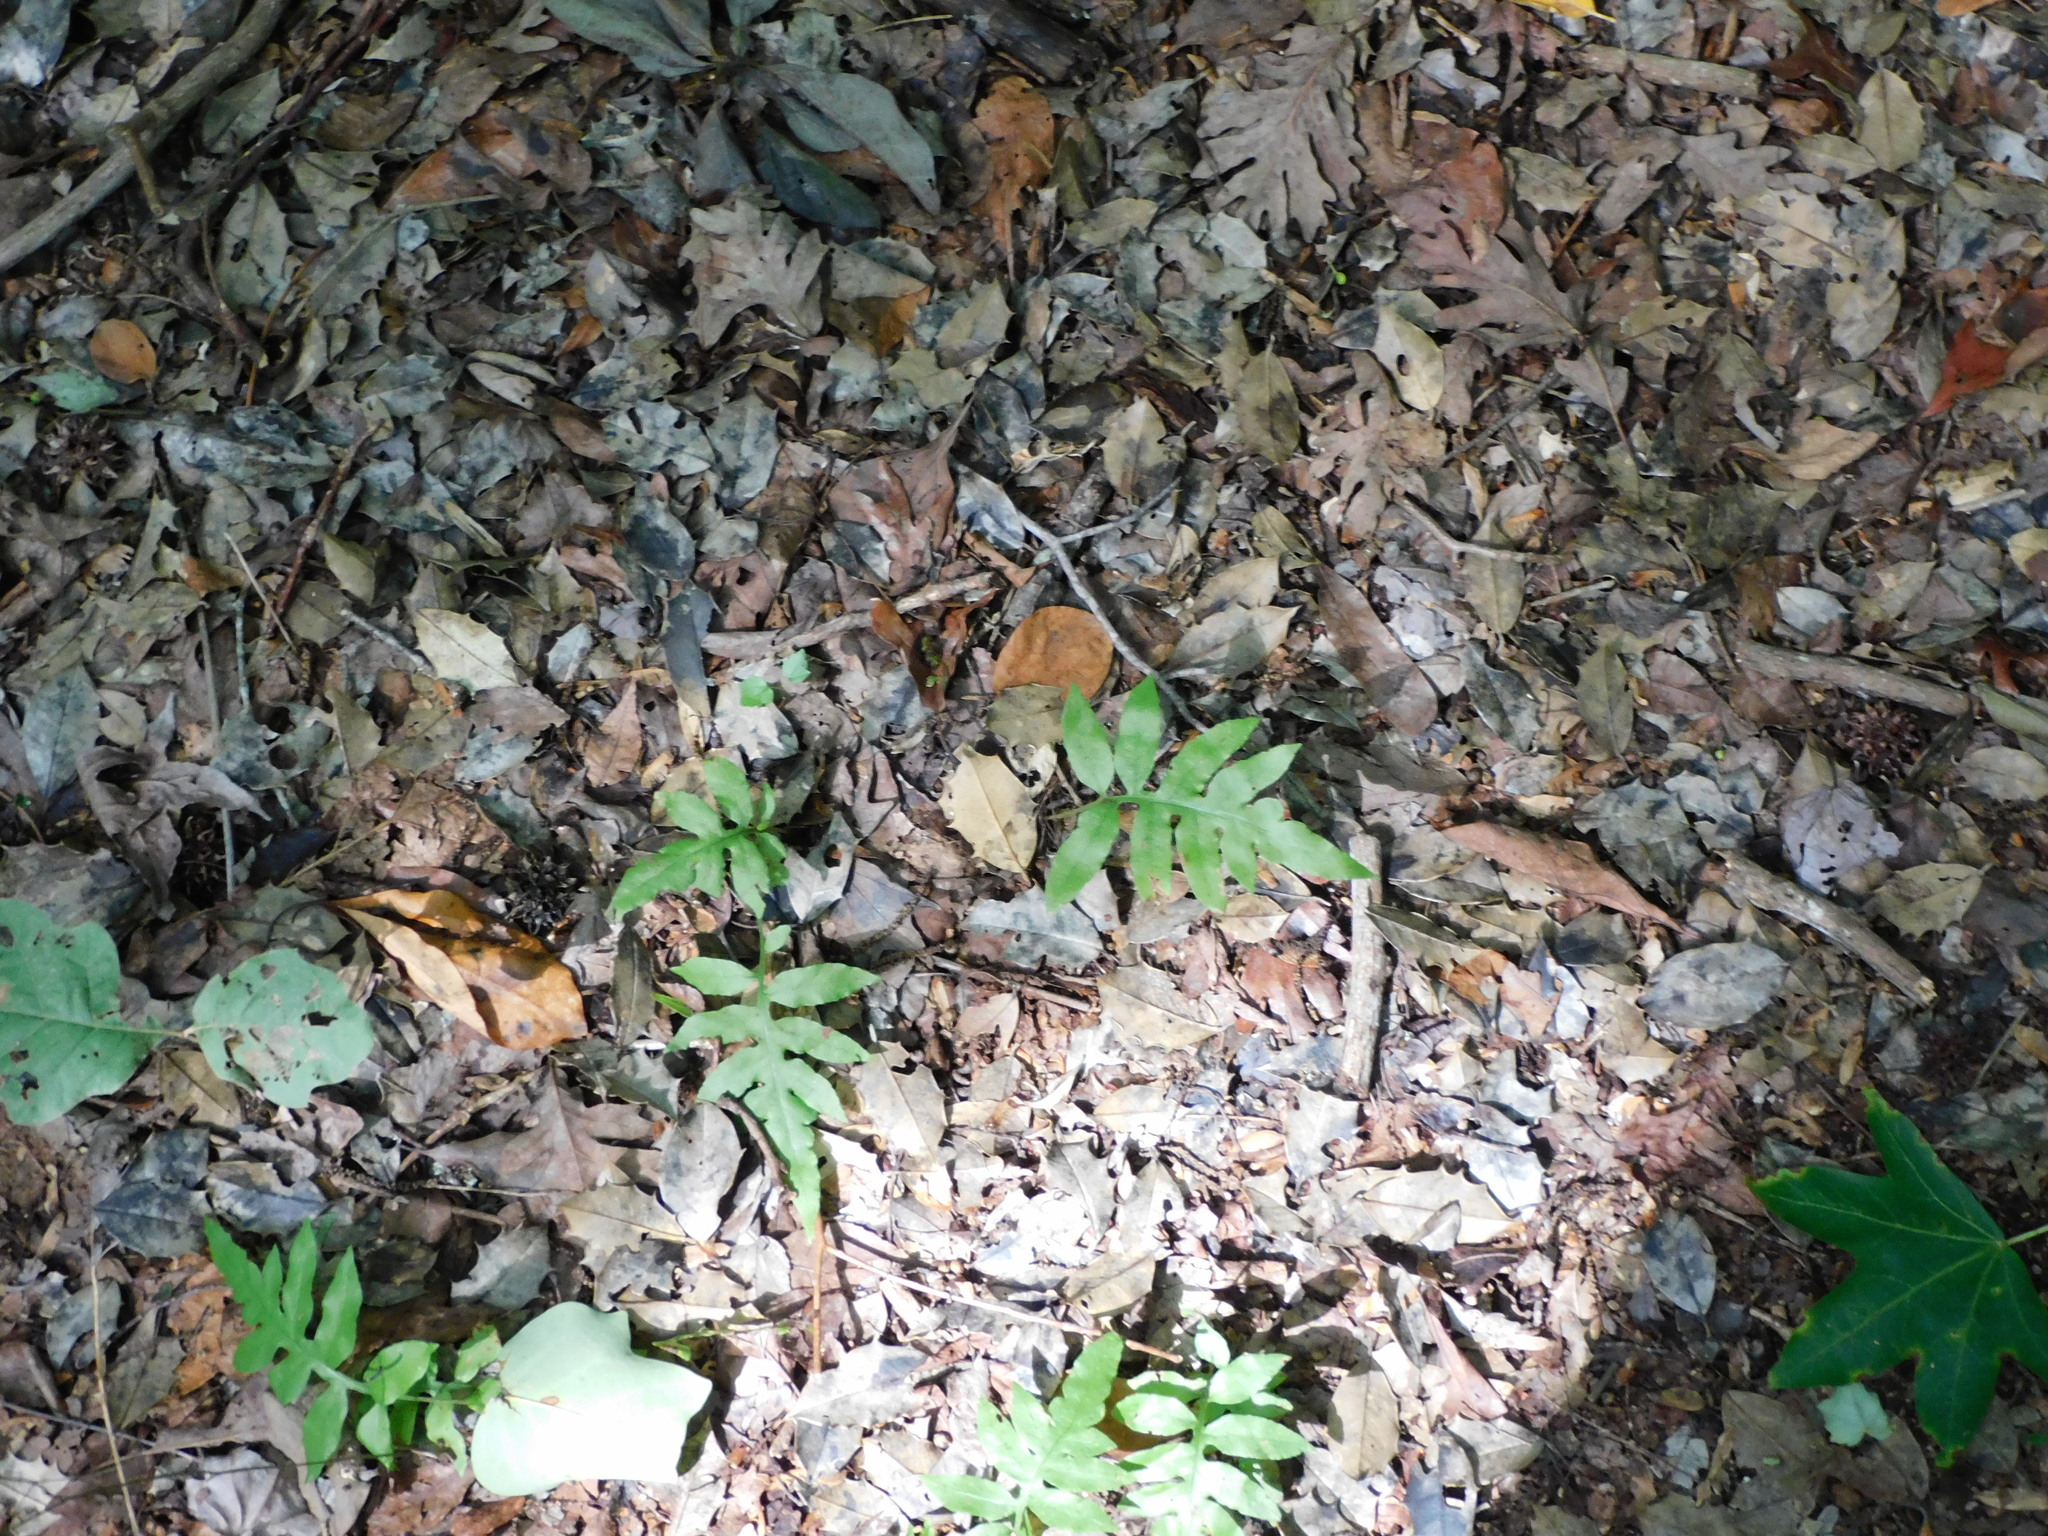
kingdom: Plantae
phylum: Tracheophyta
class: Polypodiopsida
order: Polypodiales
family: Blechnaceae
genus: Lorinseria
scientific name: Lorinseria areolata
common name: Dwarf chain fern
